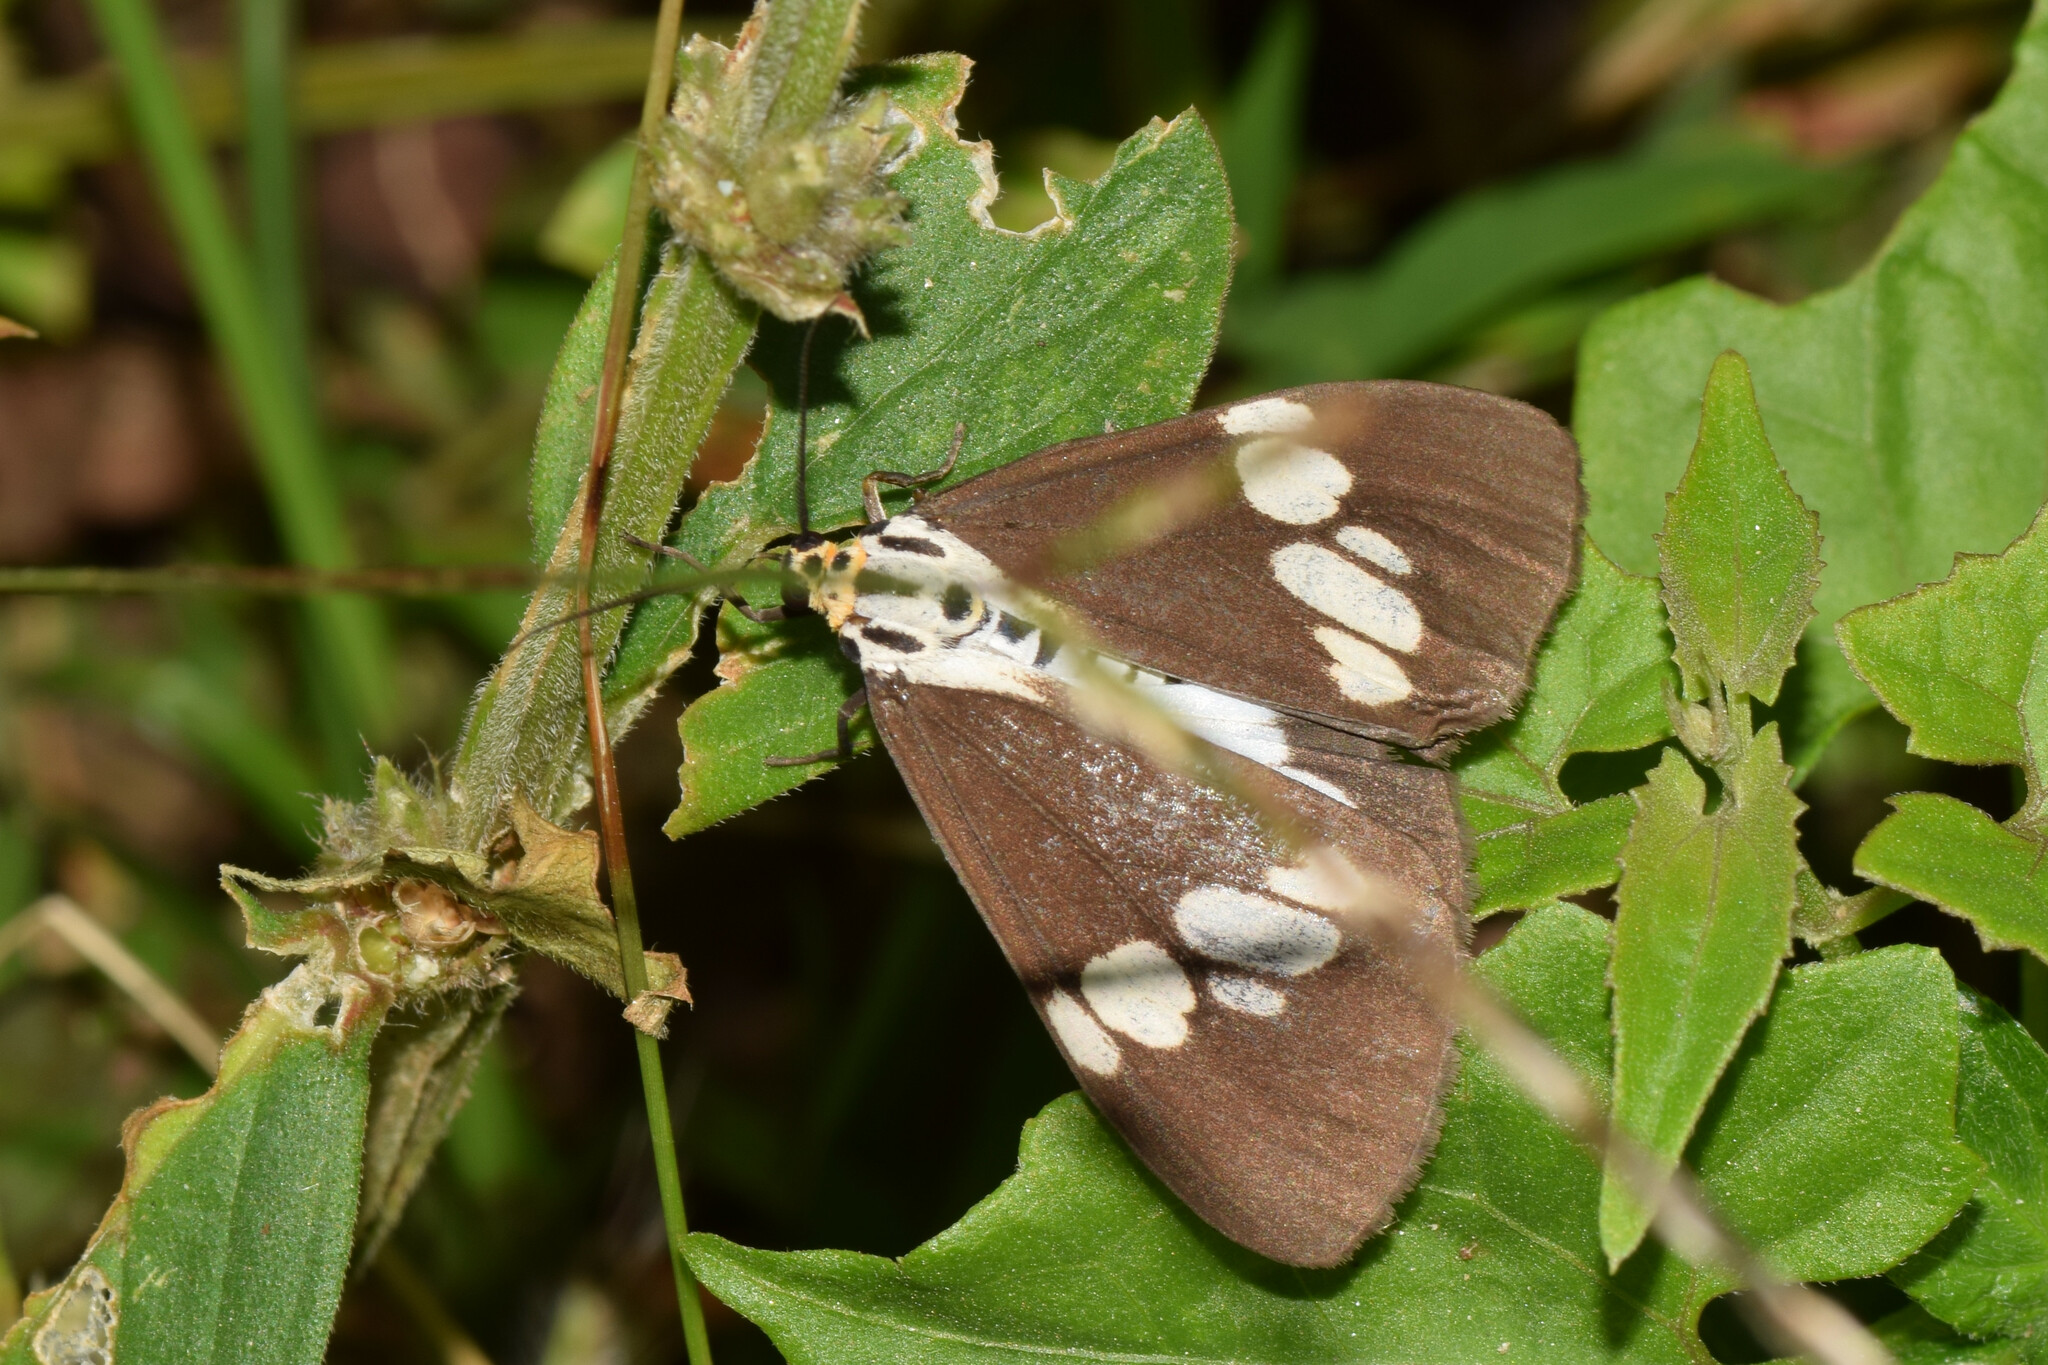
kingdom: Animalia
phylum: Arthropoda
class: Insecta
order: Lepidoptera
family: Erebidae
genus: Nyctemera
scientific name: Nyctemera lacticinia
